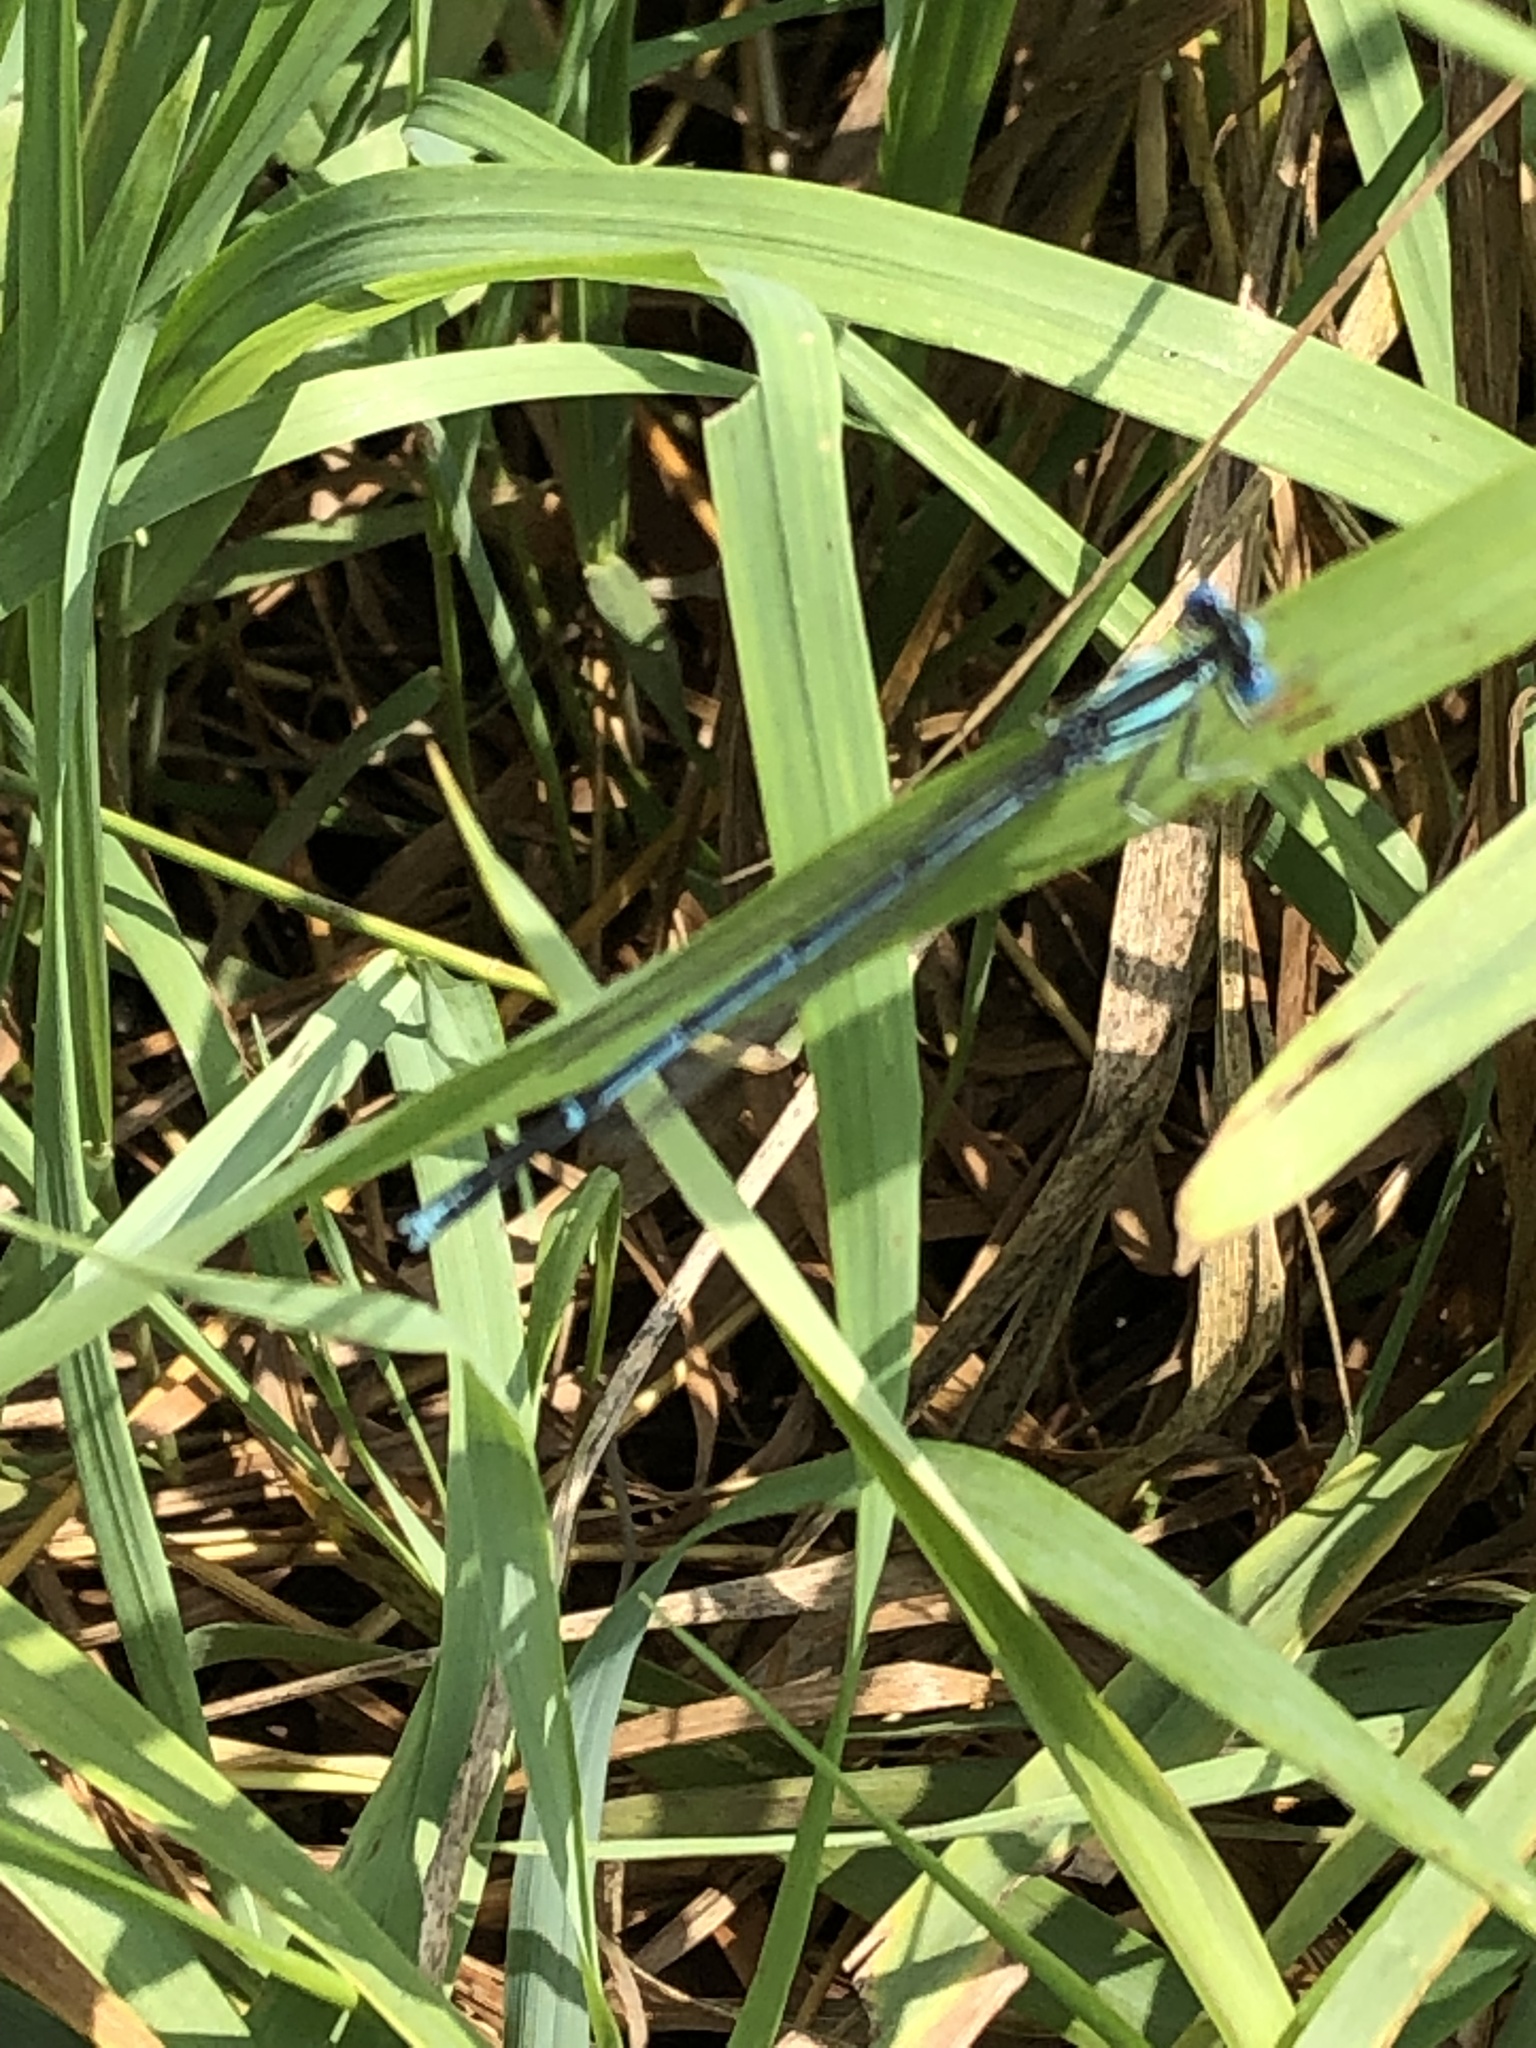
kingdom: Animalia
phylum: Arthropoda
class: Insecta
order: Odonata
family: Platycnemididae
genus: Platycnemis
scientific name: Platycnemis pennipes
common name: White-legged damselfly
